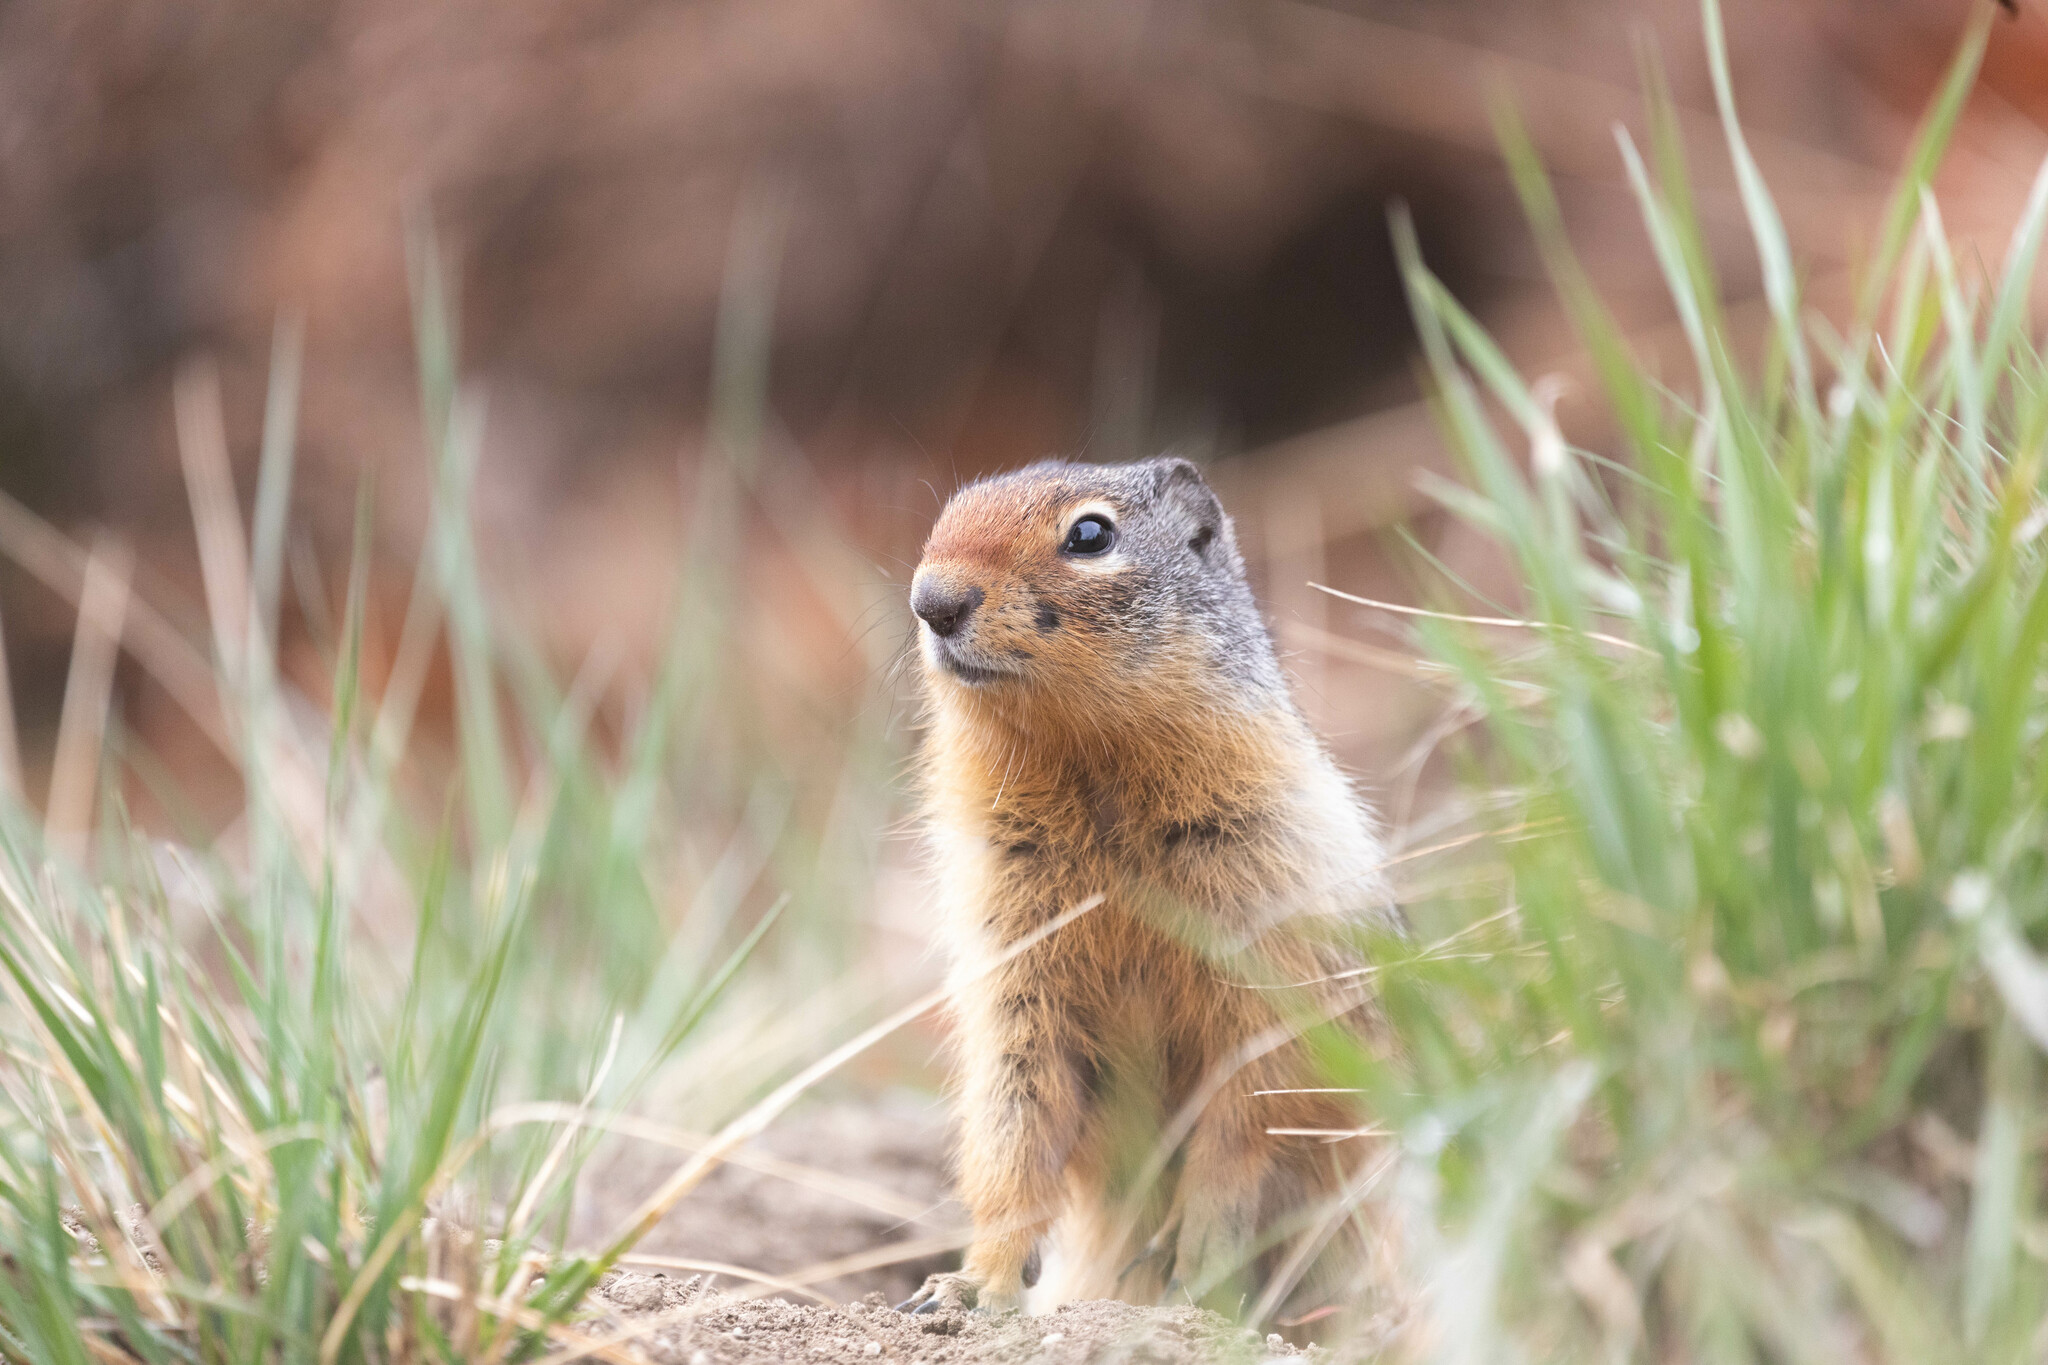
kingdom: Animalia
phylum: Chordata
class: Mammalia
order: Rodentia
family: Sciuridae
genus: Urocitellus
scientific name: Urocitellus columbianus
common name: Columbian ground squirrel
